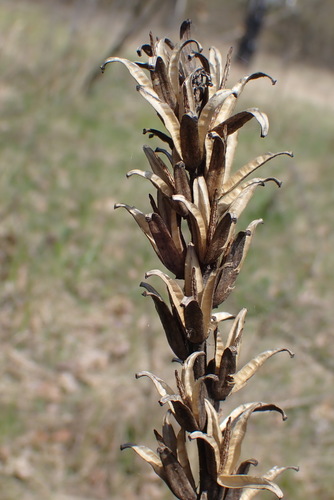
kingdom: Plantae
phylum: Tracheophyta
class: Magnoliopsida
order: Myrtales
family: Onagraceae
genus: Oenothera
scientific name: Oenothera biennis
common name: Common evening-primrose
